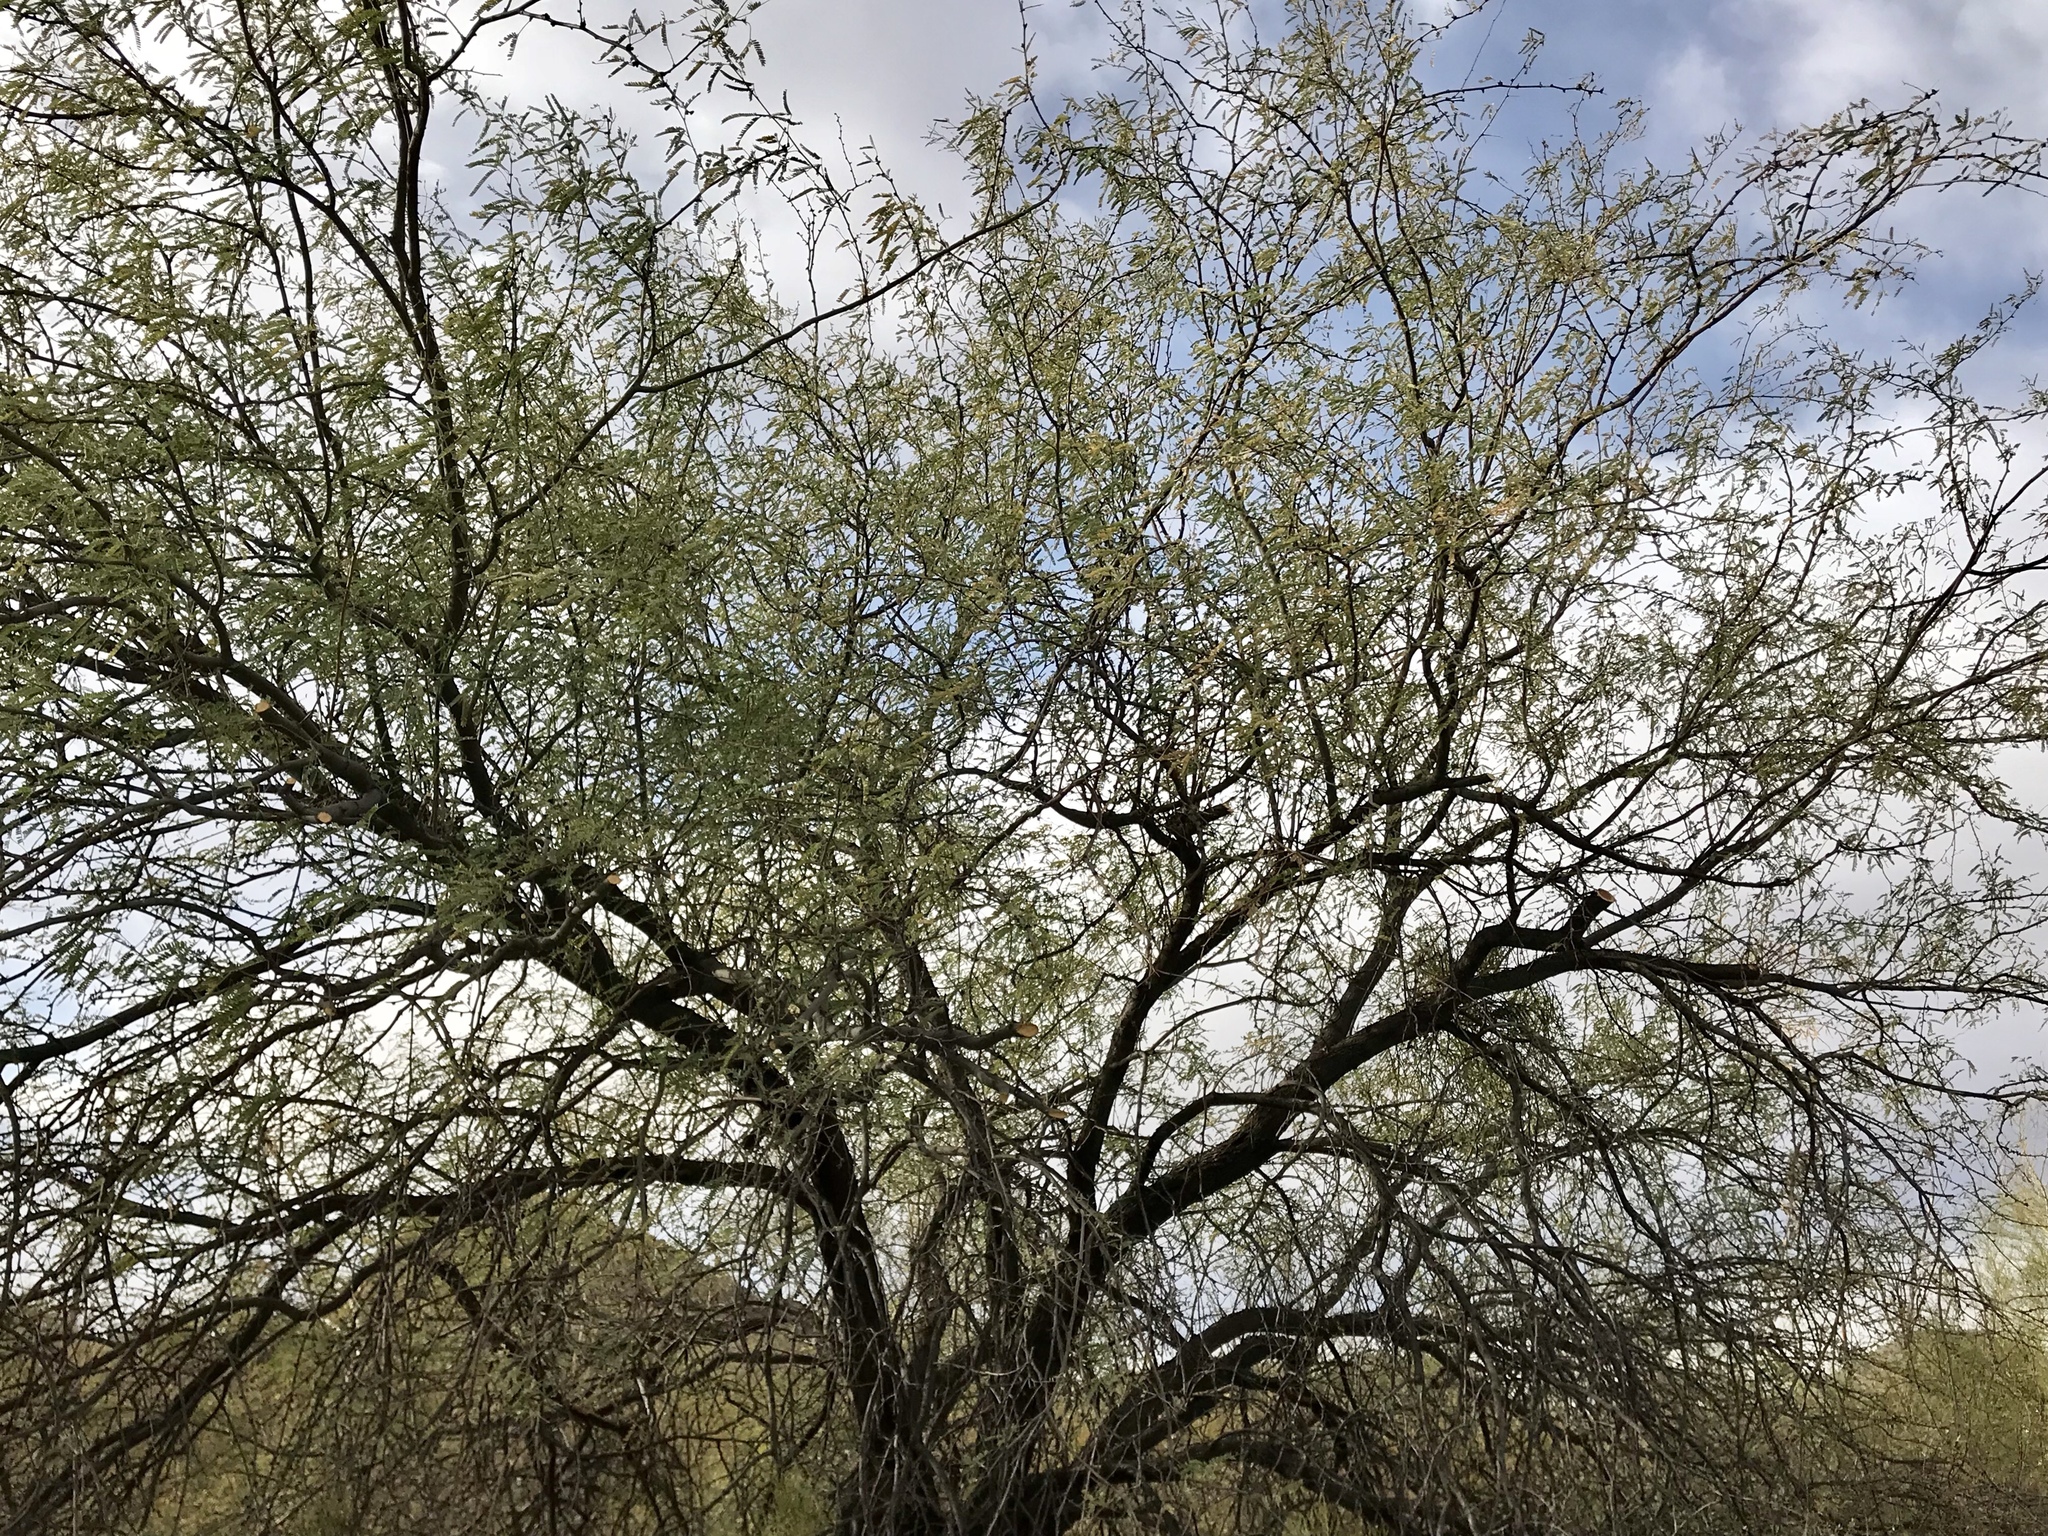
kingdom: Plantae
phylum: Tracheophyta
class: Magnoliopsida
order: Fabales
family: Fabaceae
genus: Prosopis
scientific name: Prosopis velutina
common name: Velvet mesquite
